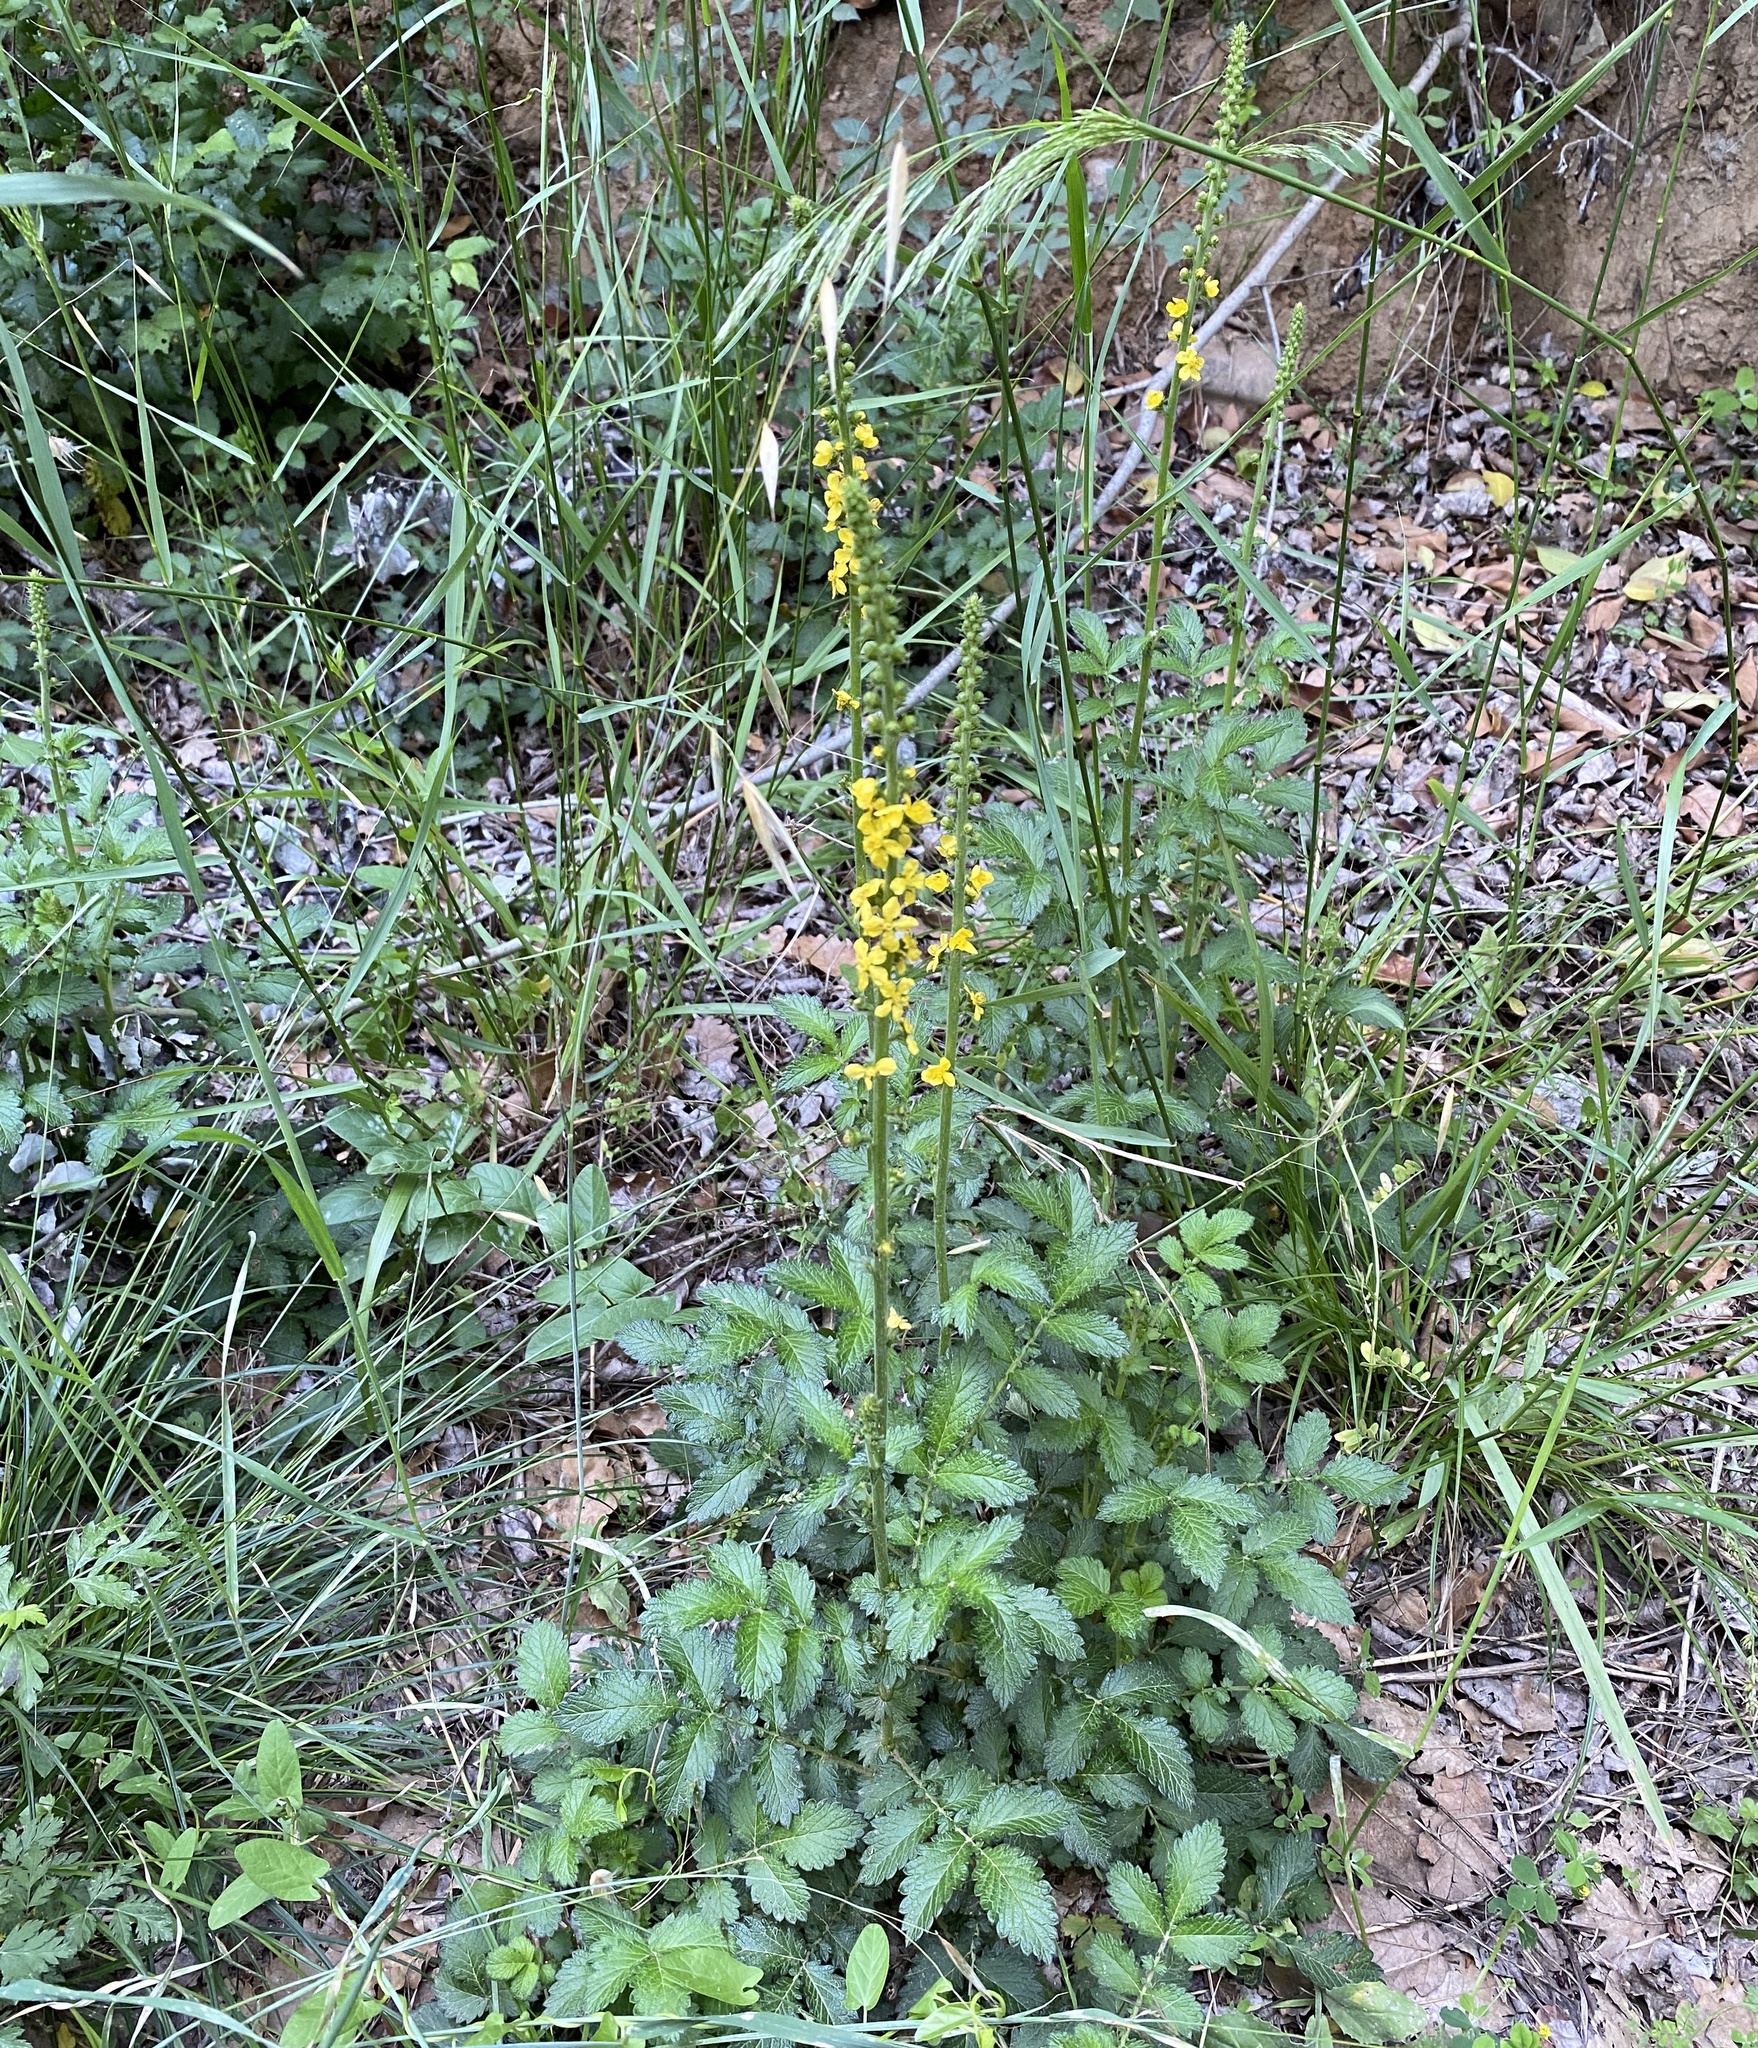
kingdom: Plantae
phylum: Tracheophyta
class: Magnoliopsida
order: Rosales
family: Rosaceae
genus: Agrimonia
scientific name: Agrimonia eupatoria
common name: Agrimony
